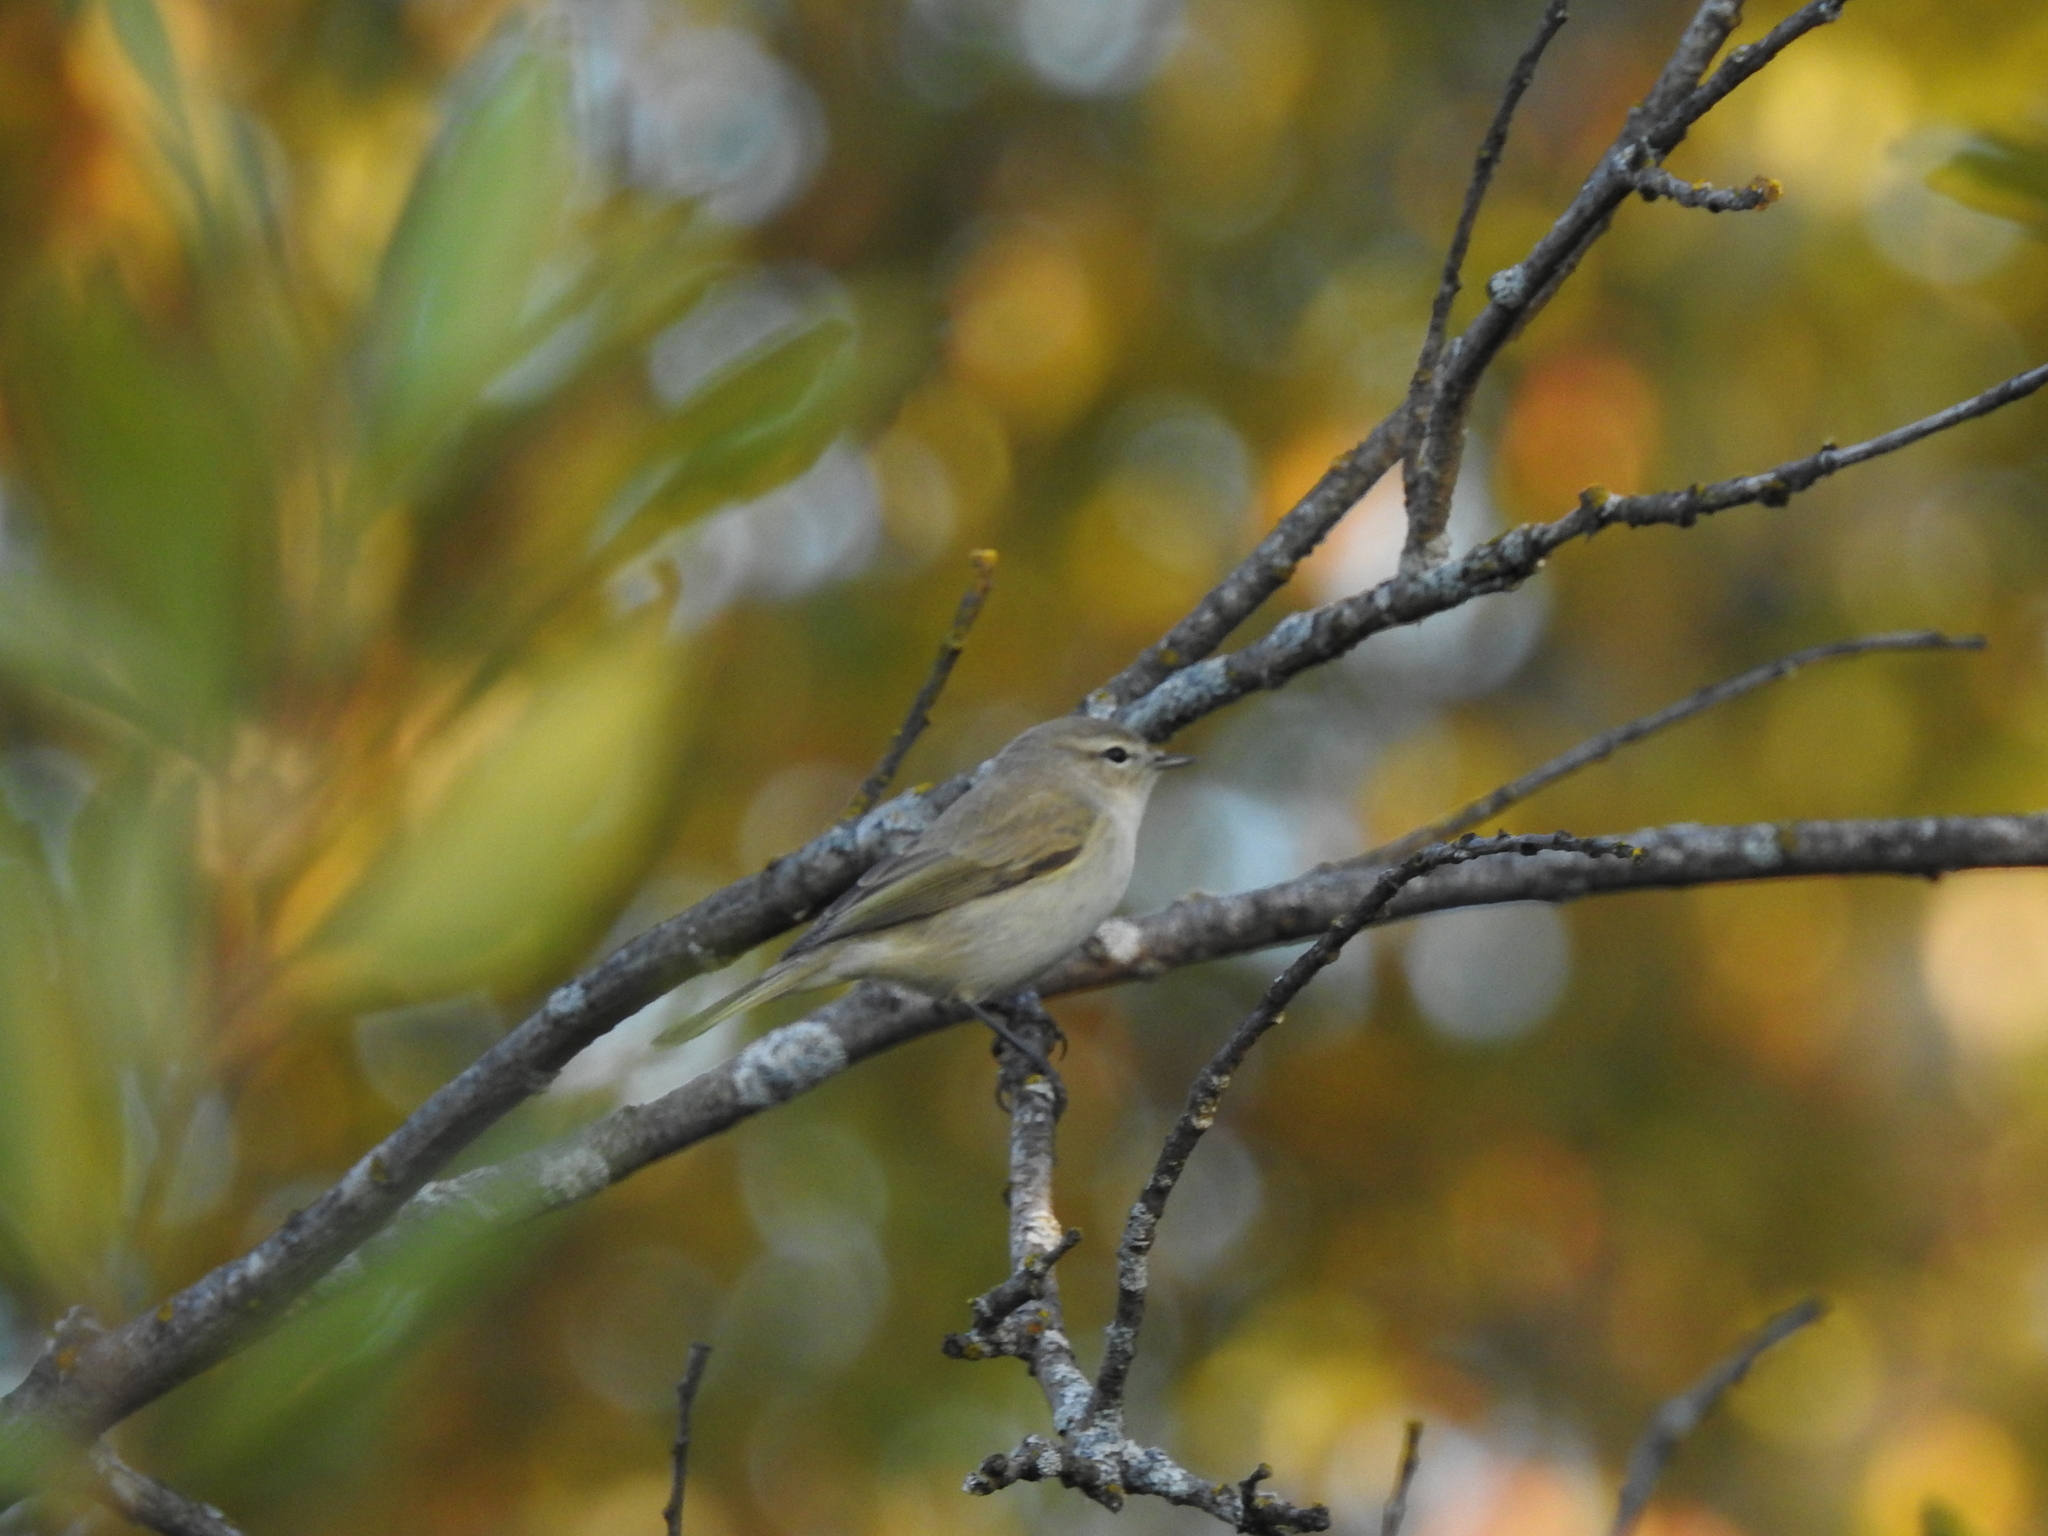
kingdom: Animalia
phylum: Chordata
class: Aves
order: Passeriformes
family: Phylloscopidae
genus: Phylloscopus
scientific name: Phylloscopus collybita
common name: Common chiffchaff
